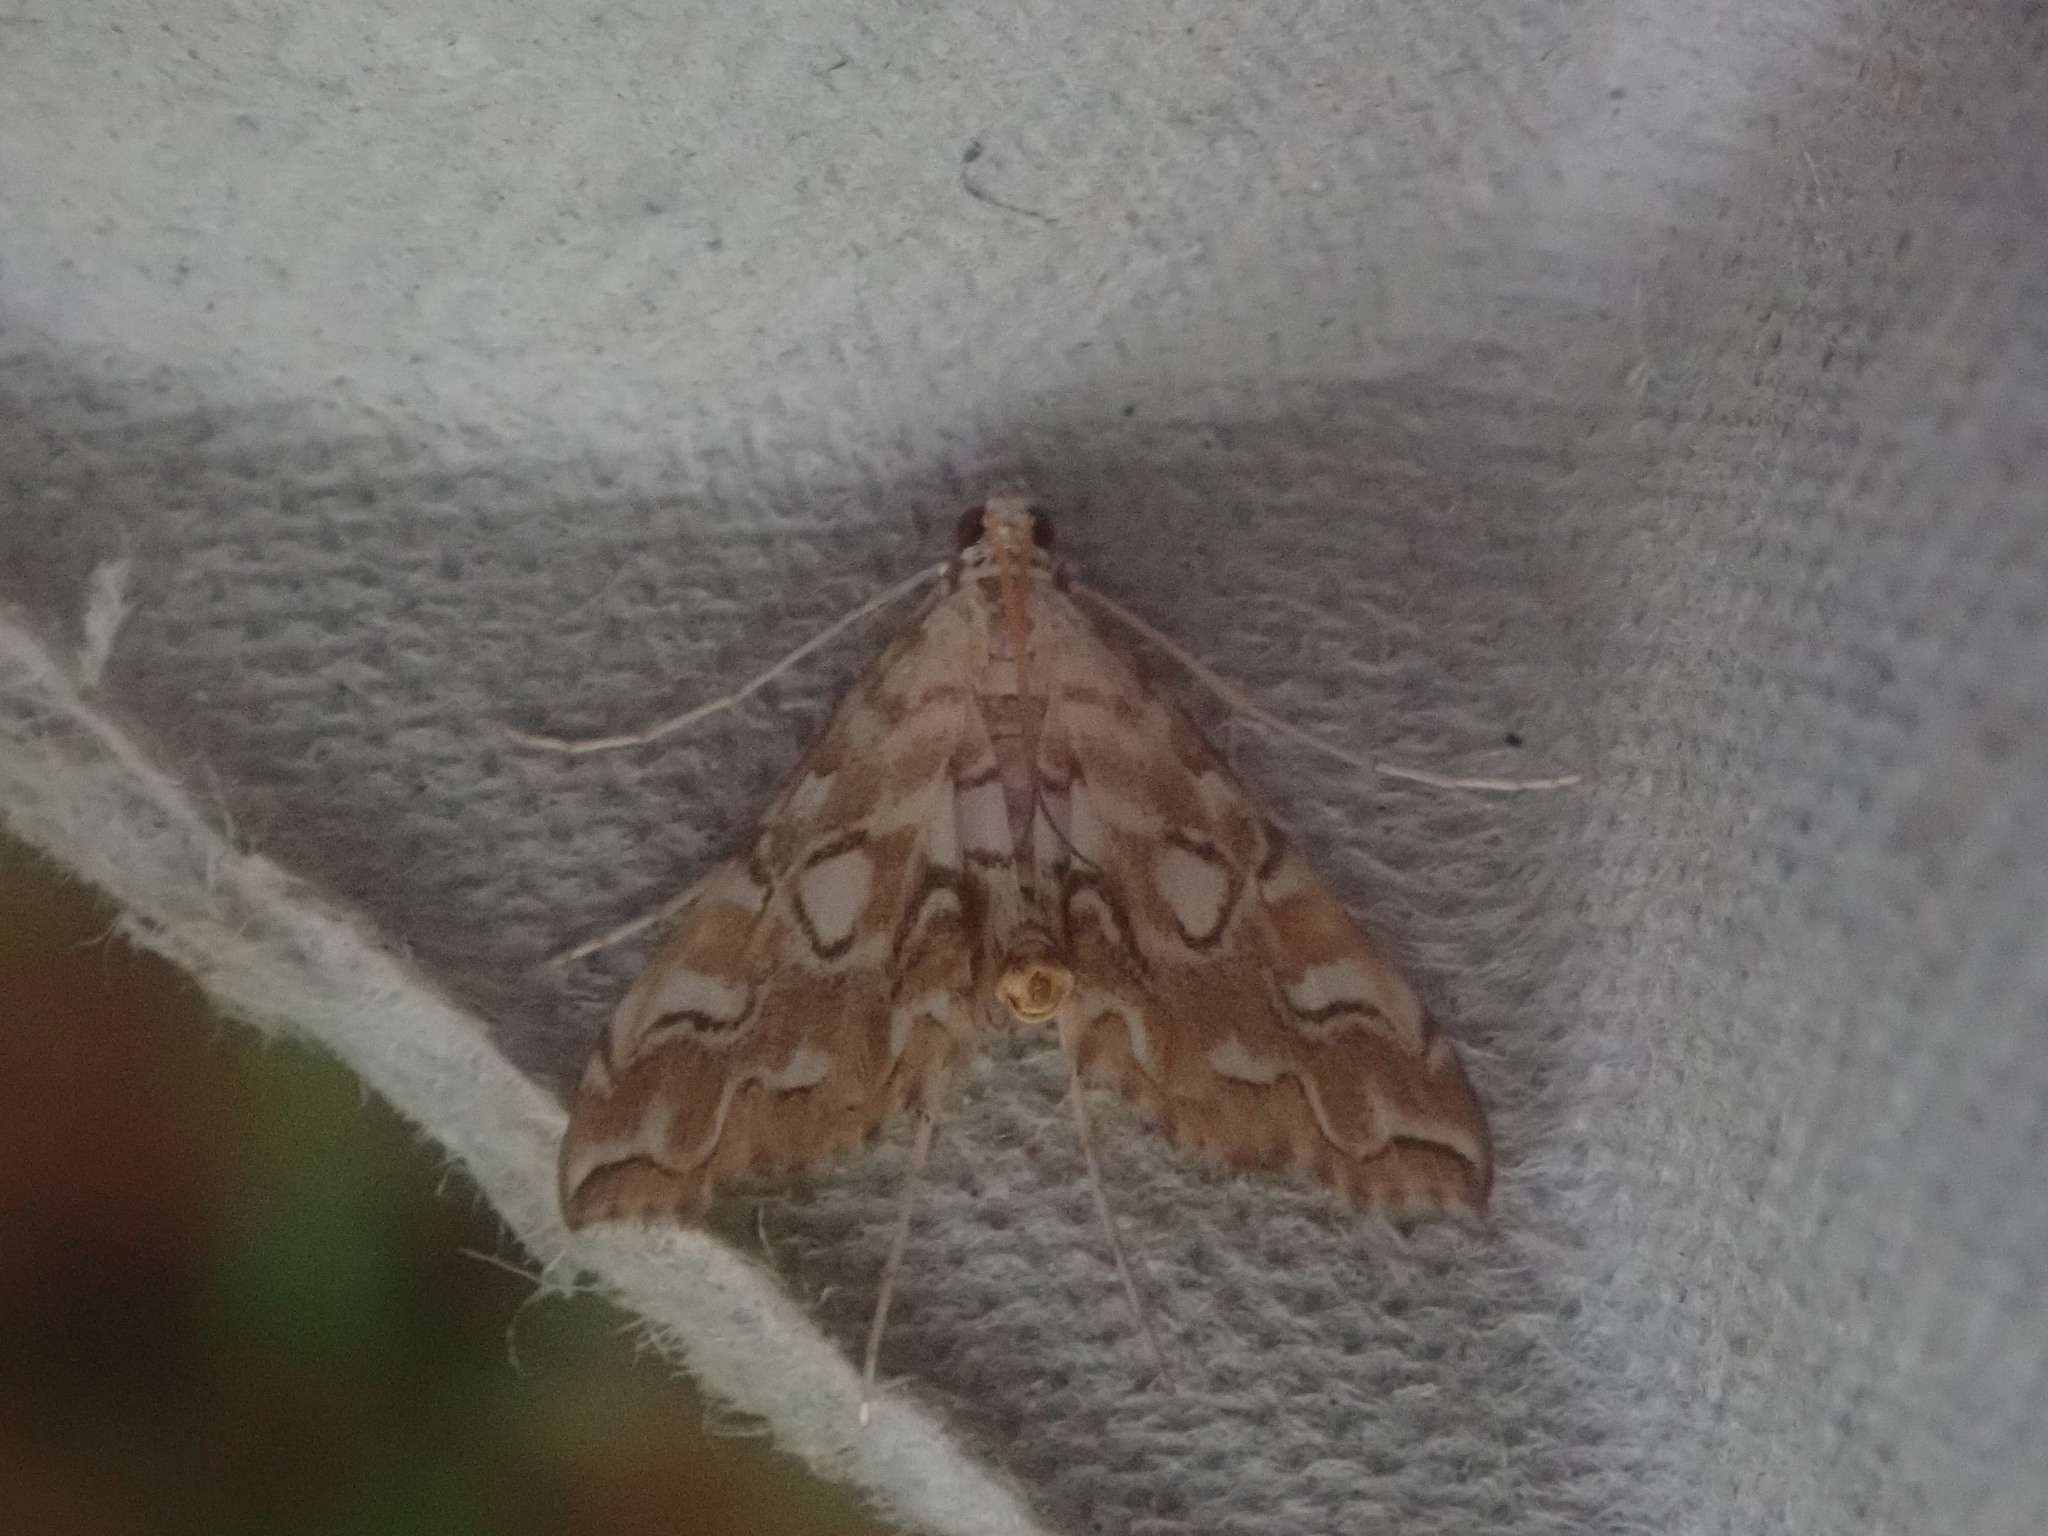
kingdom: Animalia
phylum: Arthropoda
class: Insecta
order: Lepidoptera
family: Crambidae
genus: Elophila
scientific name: Elophila icciusalis
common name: Pondside pyralid moth
